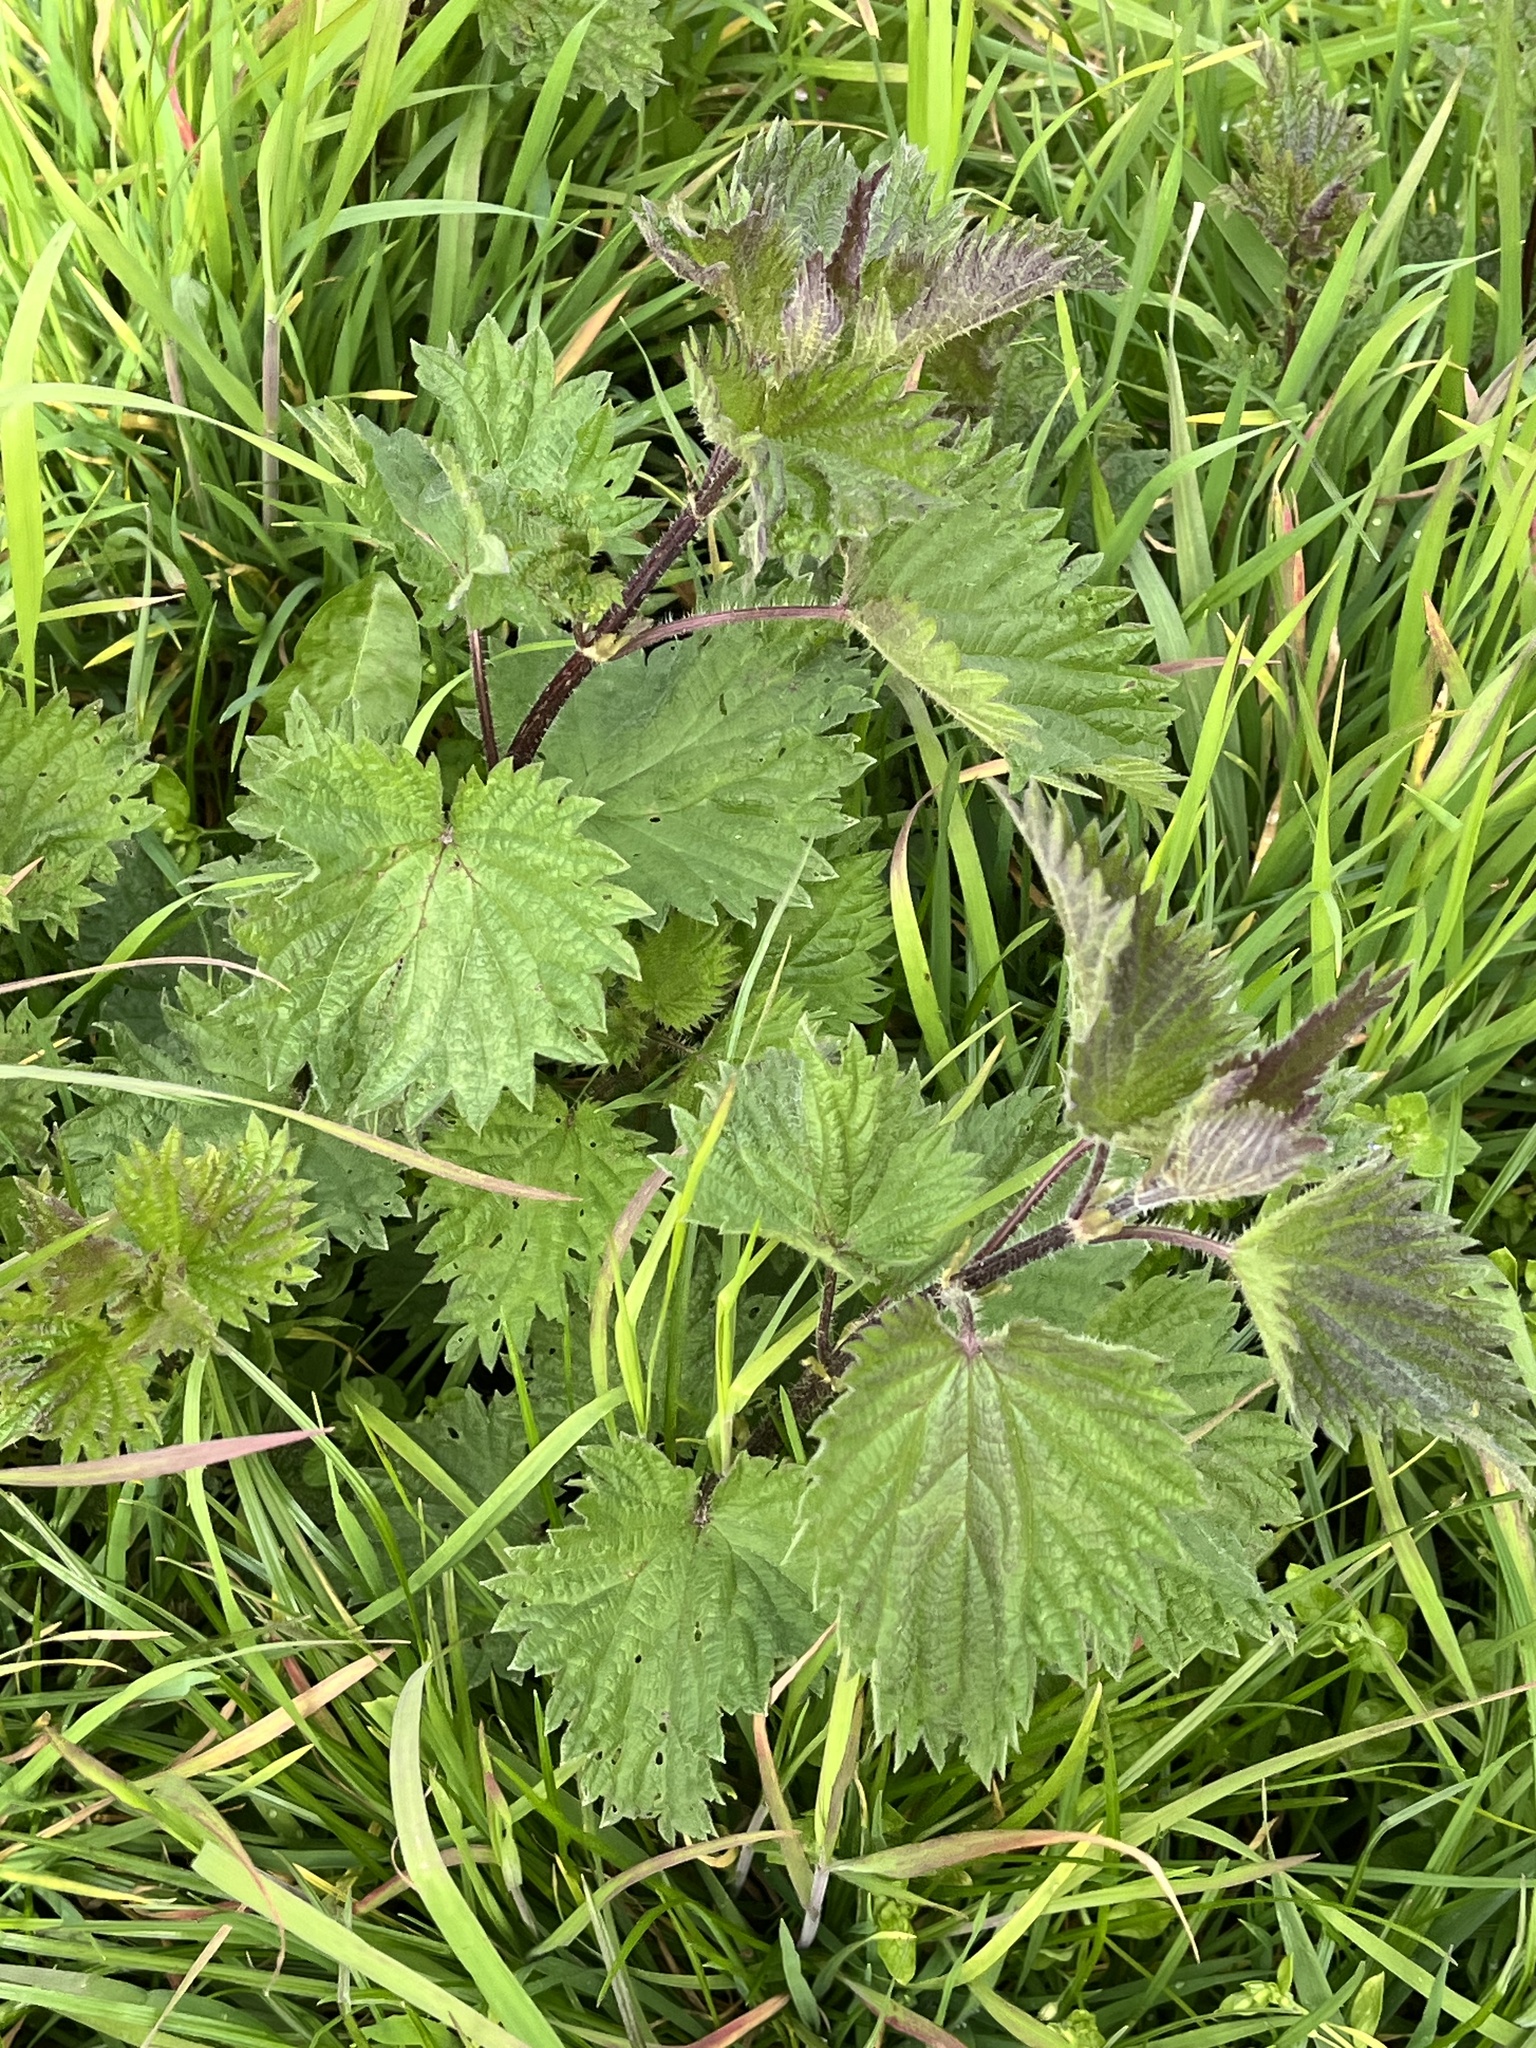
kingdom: Plantae
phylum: Tracheophyta
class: Magnoliopsida
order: Rosales
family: Urticaceae
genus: Urtica
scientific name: Urtica dioica
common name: Common nettle
